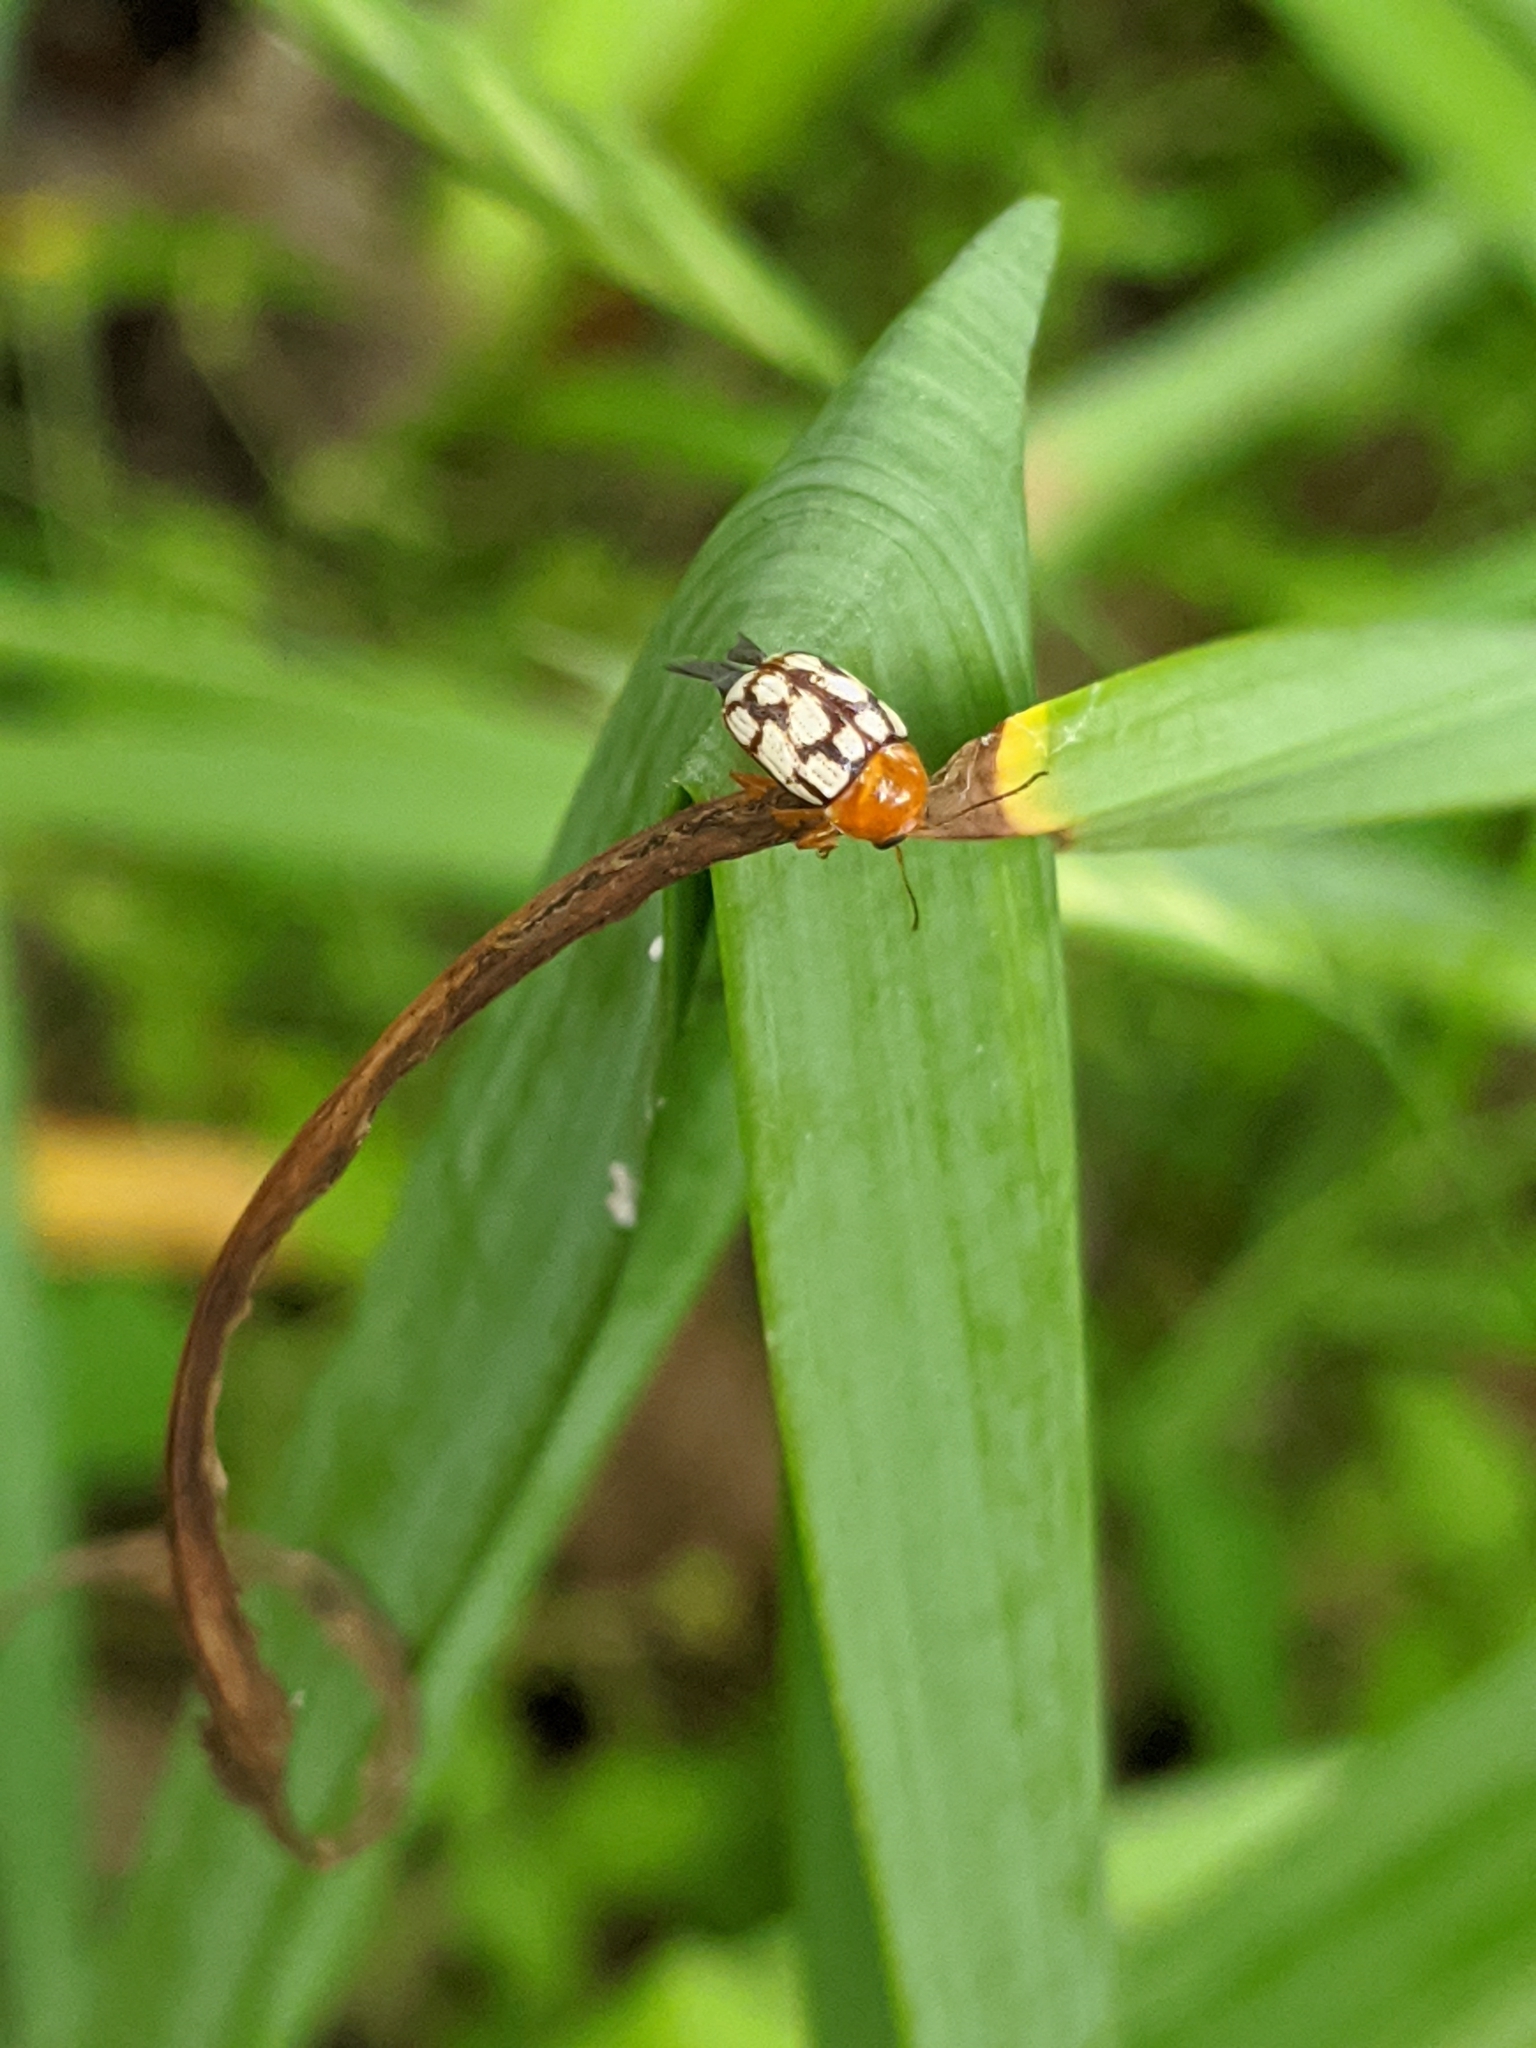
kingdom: Animalia
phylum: Arthropoda
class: Insecta
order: Coleoptera
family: Chrysomelidae
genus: Cryptocephalus
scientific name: Cryptocephalus guttulatus
